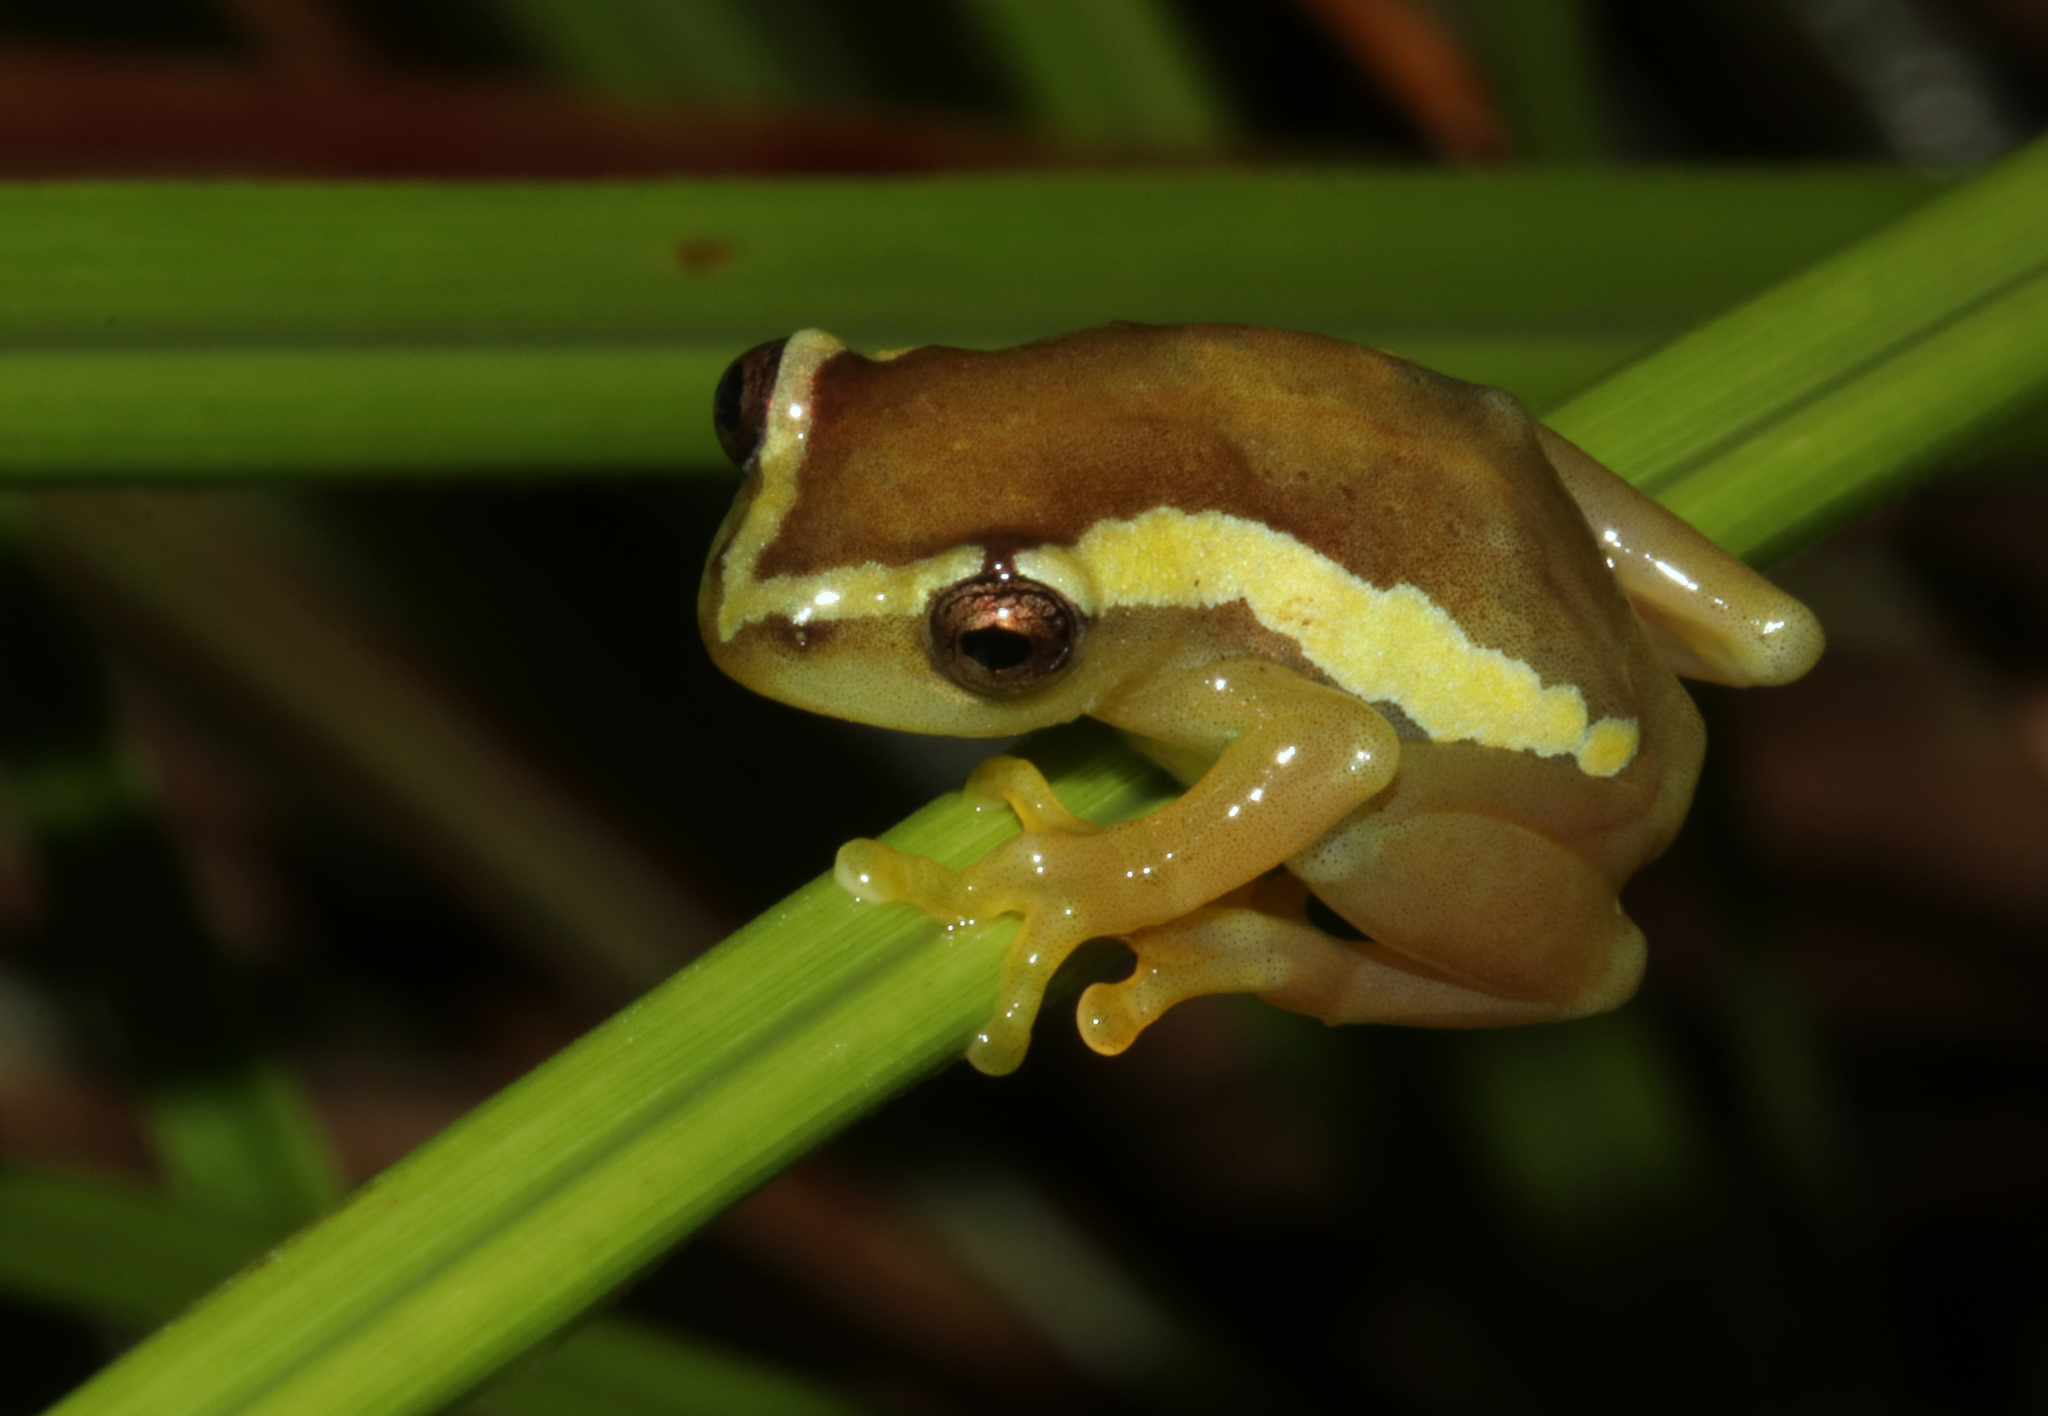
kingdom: Animalia
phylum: Chordata
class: Amphibia
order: Anura
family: Hyperoliidae
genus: Hyperolius
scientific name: Hyperolius davenporti
